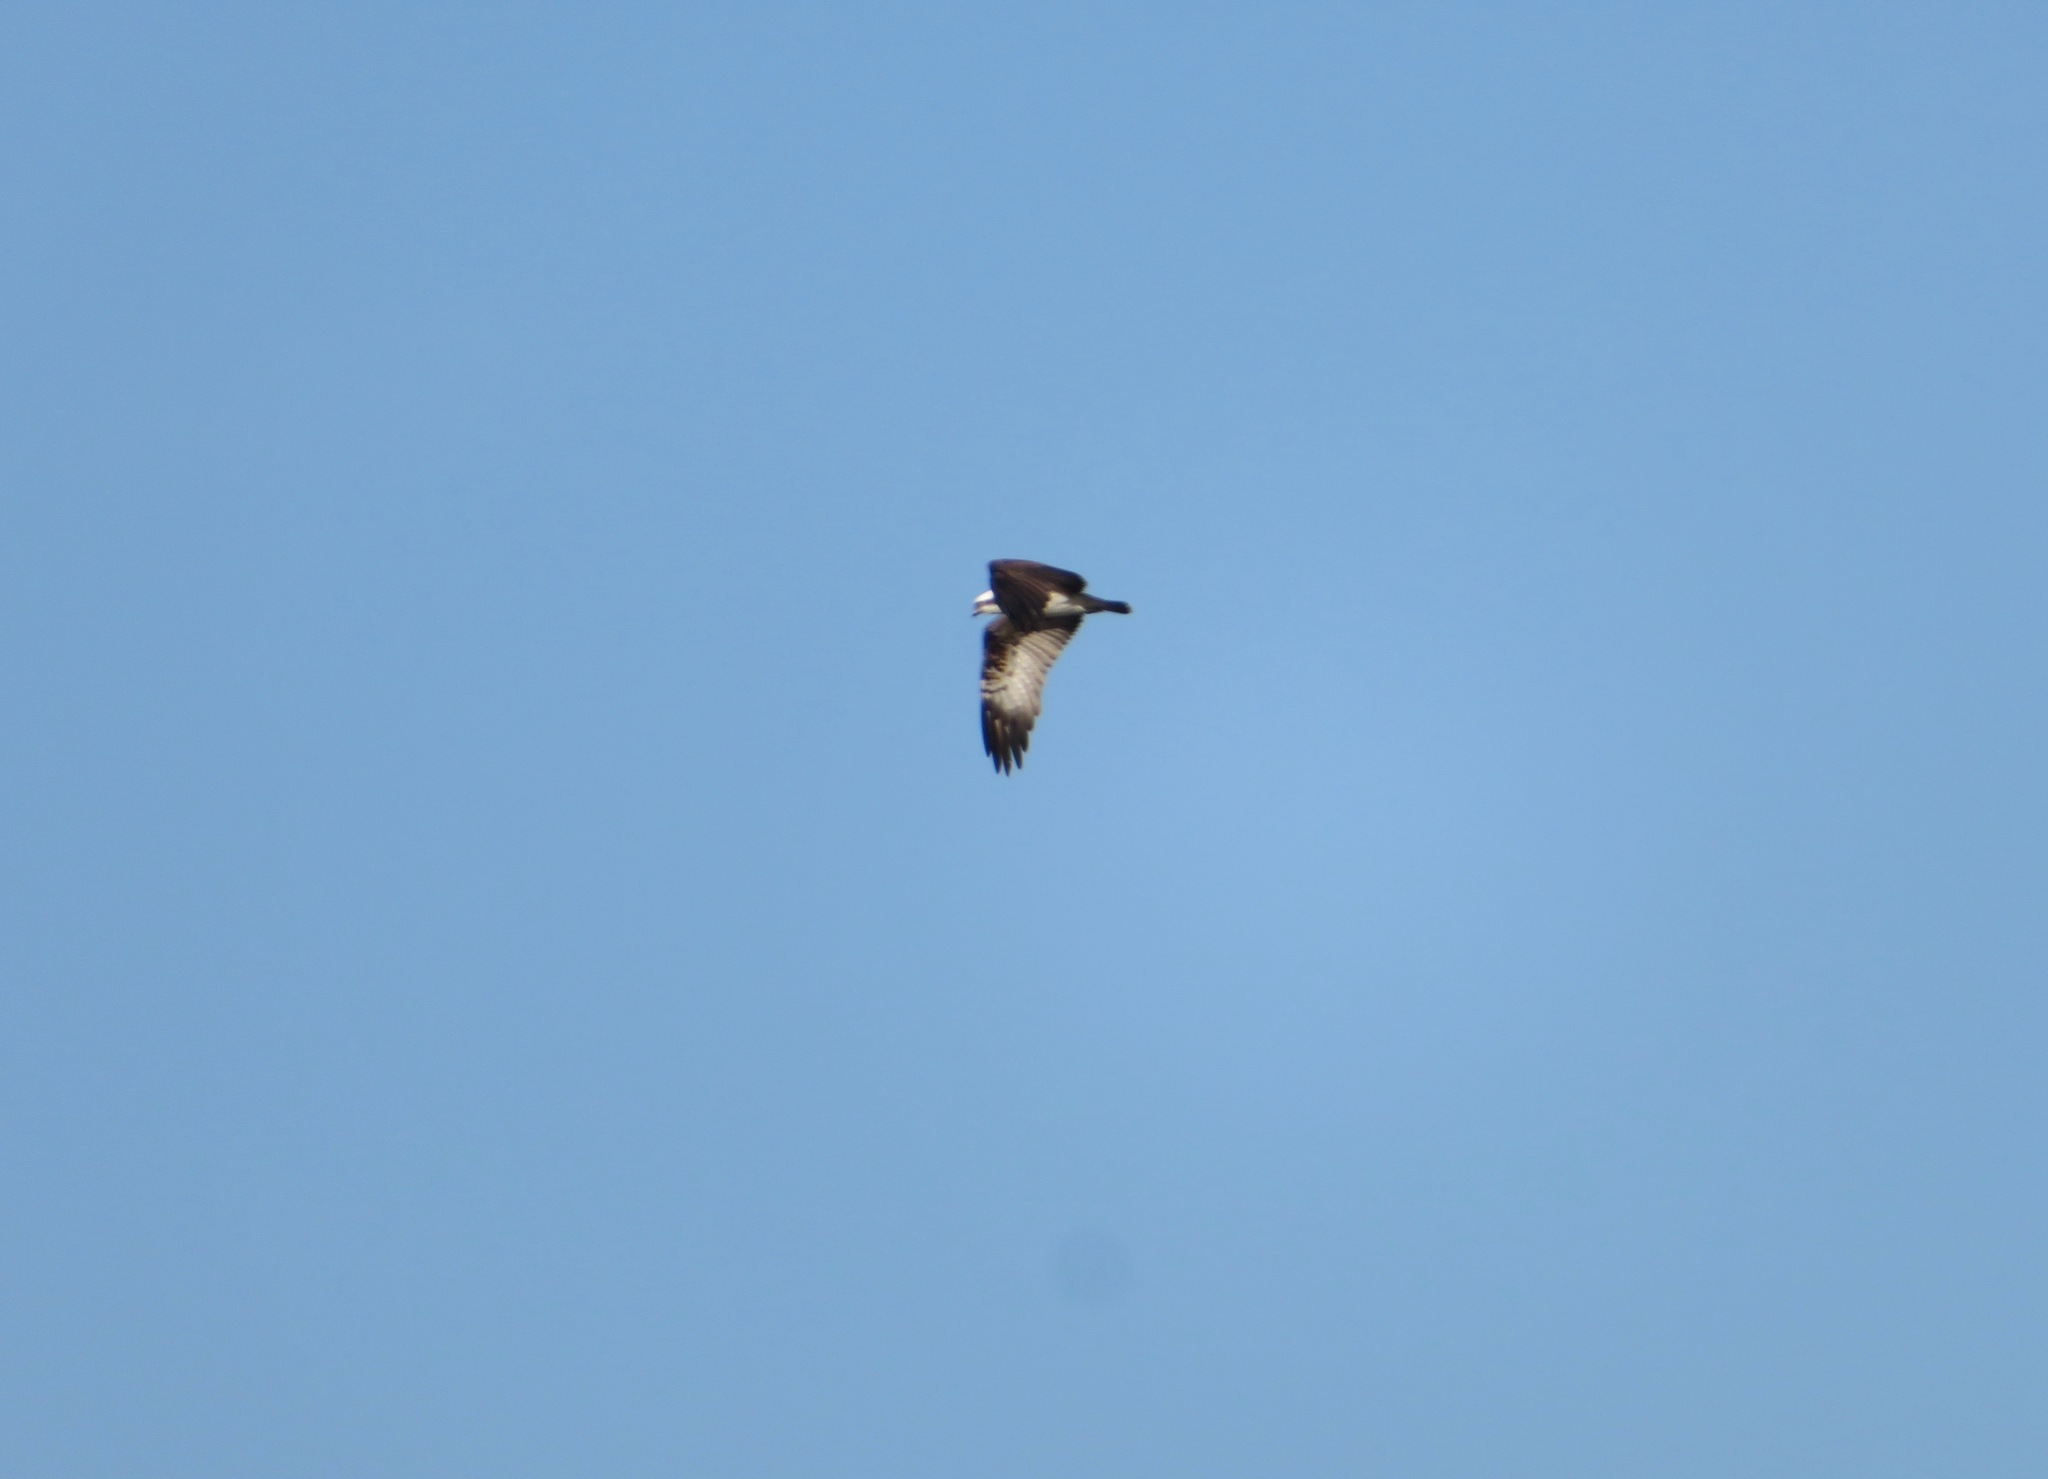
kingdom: Animalia
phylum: Chordata
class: Aves
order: Accipitriformes
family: Pandionidae
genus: Pandion
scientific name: Pandion haliaetus
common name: Osprey
